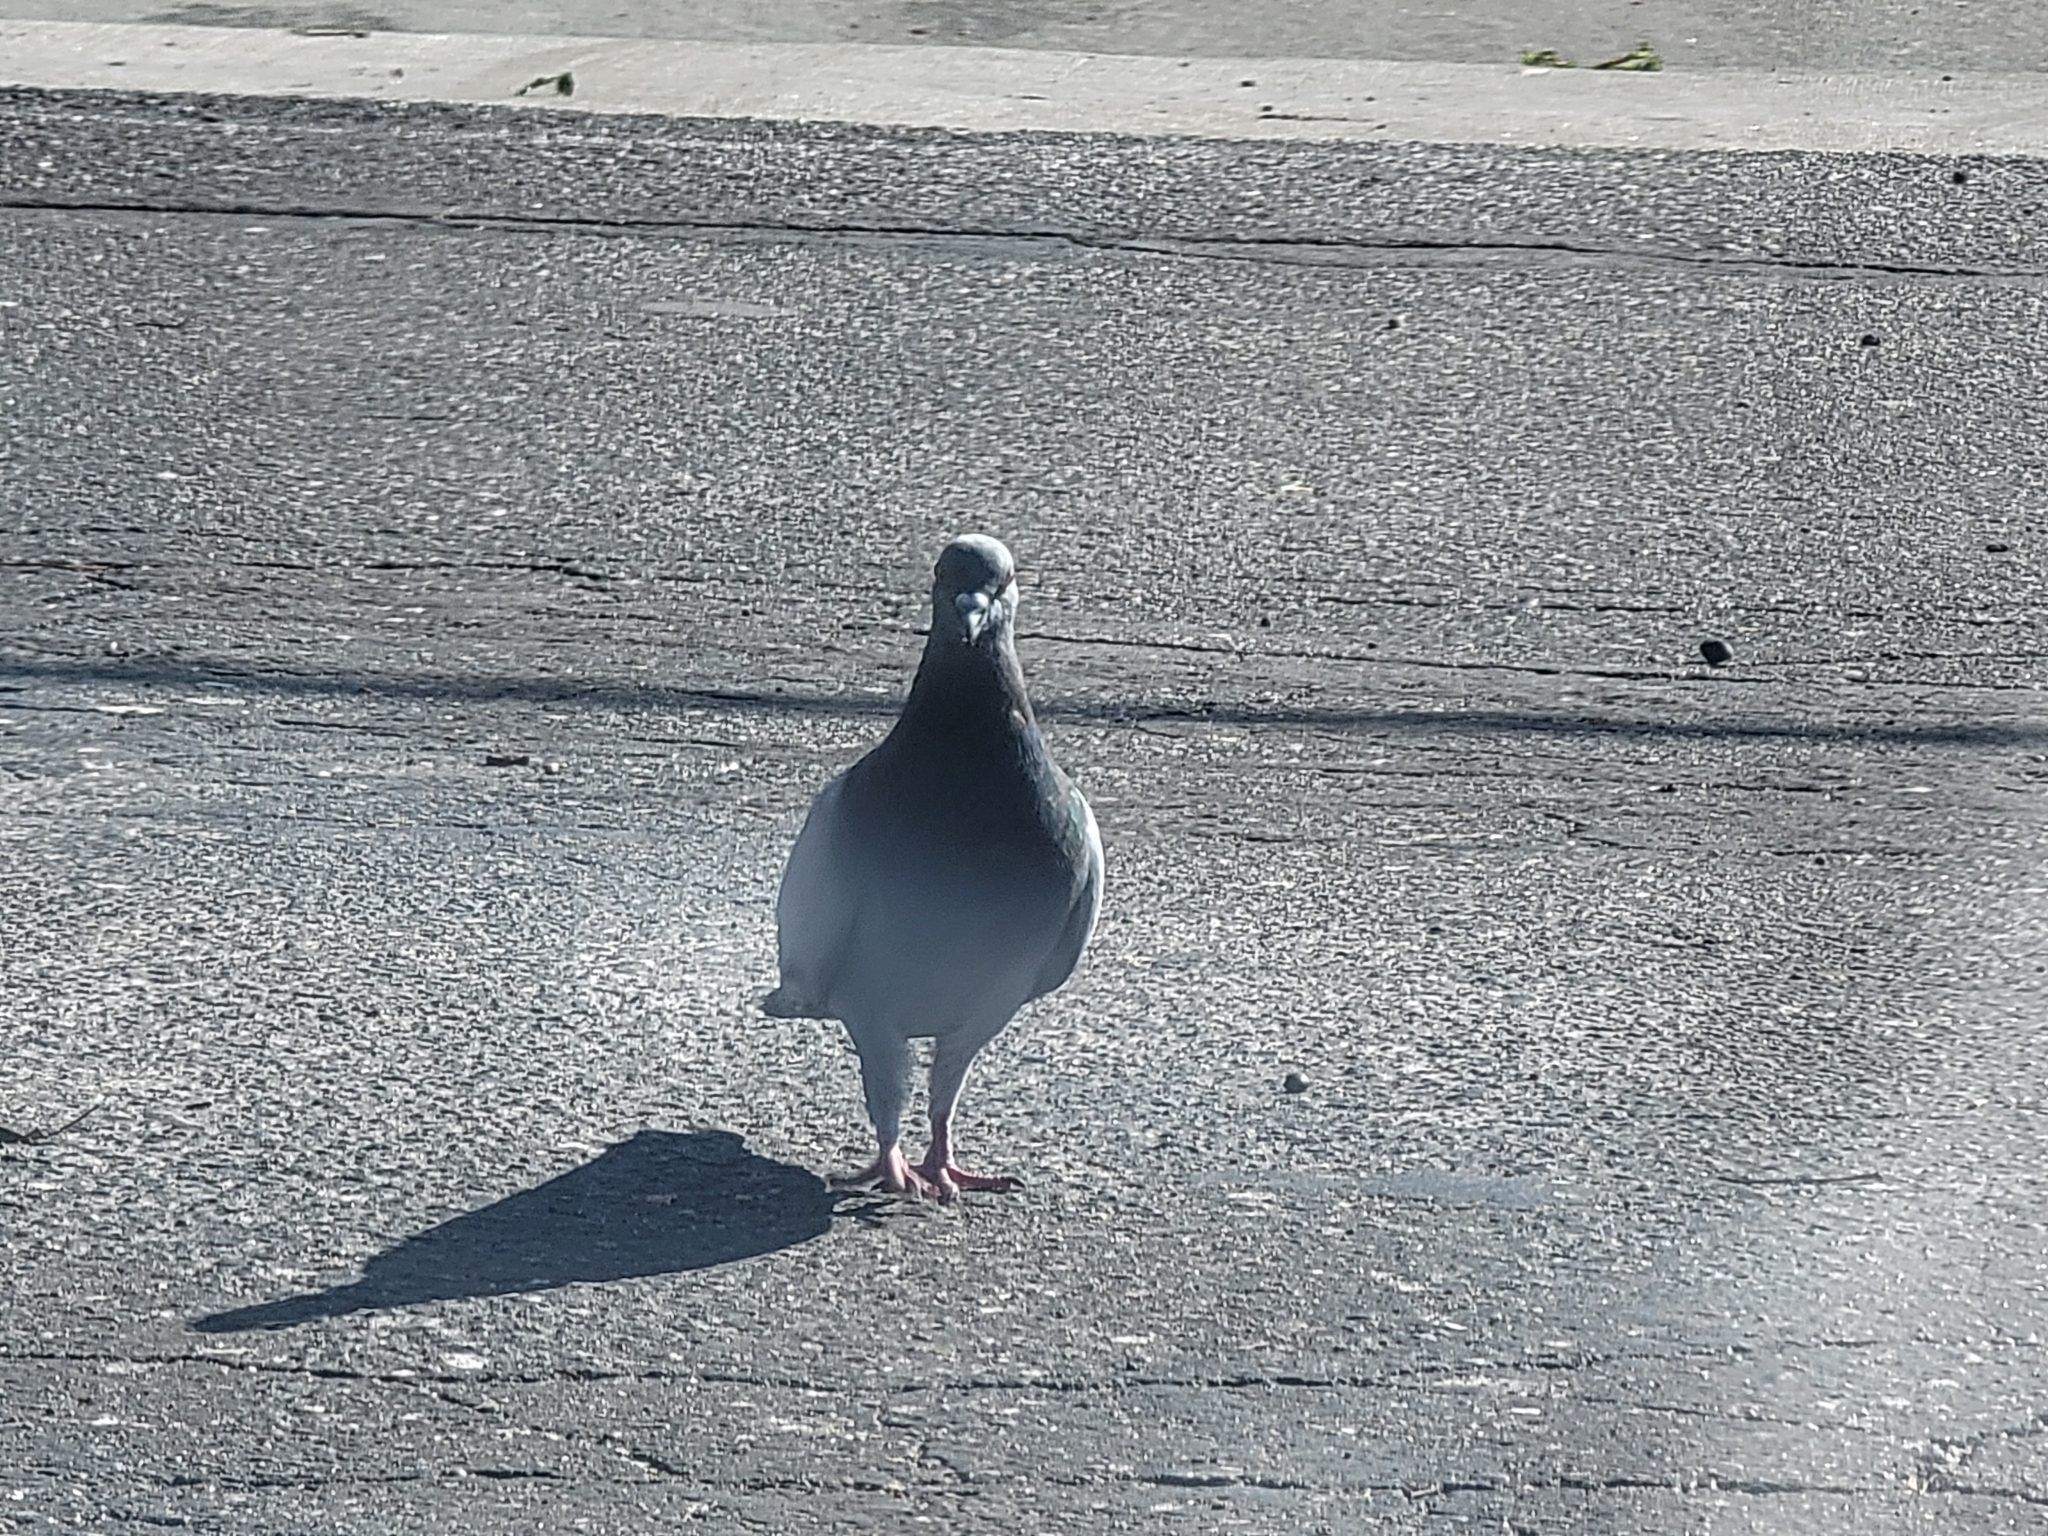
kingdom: Animalia
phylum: Chordata
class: Aves
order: Columbiformes
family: Columbidae
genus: Columba
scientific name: Columba livia
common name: Rock pigeon
